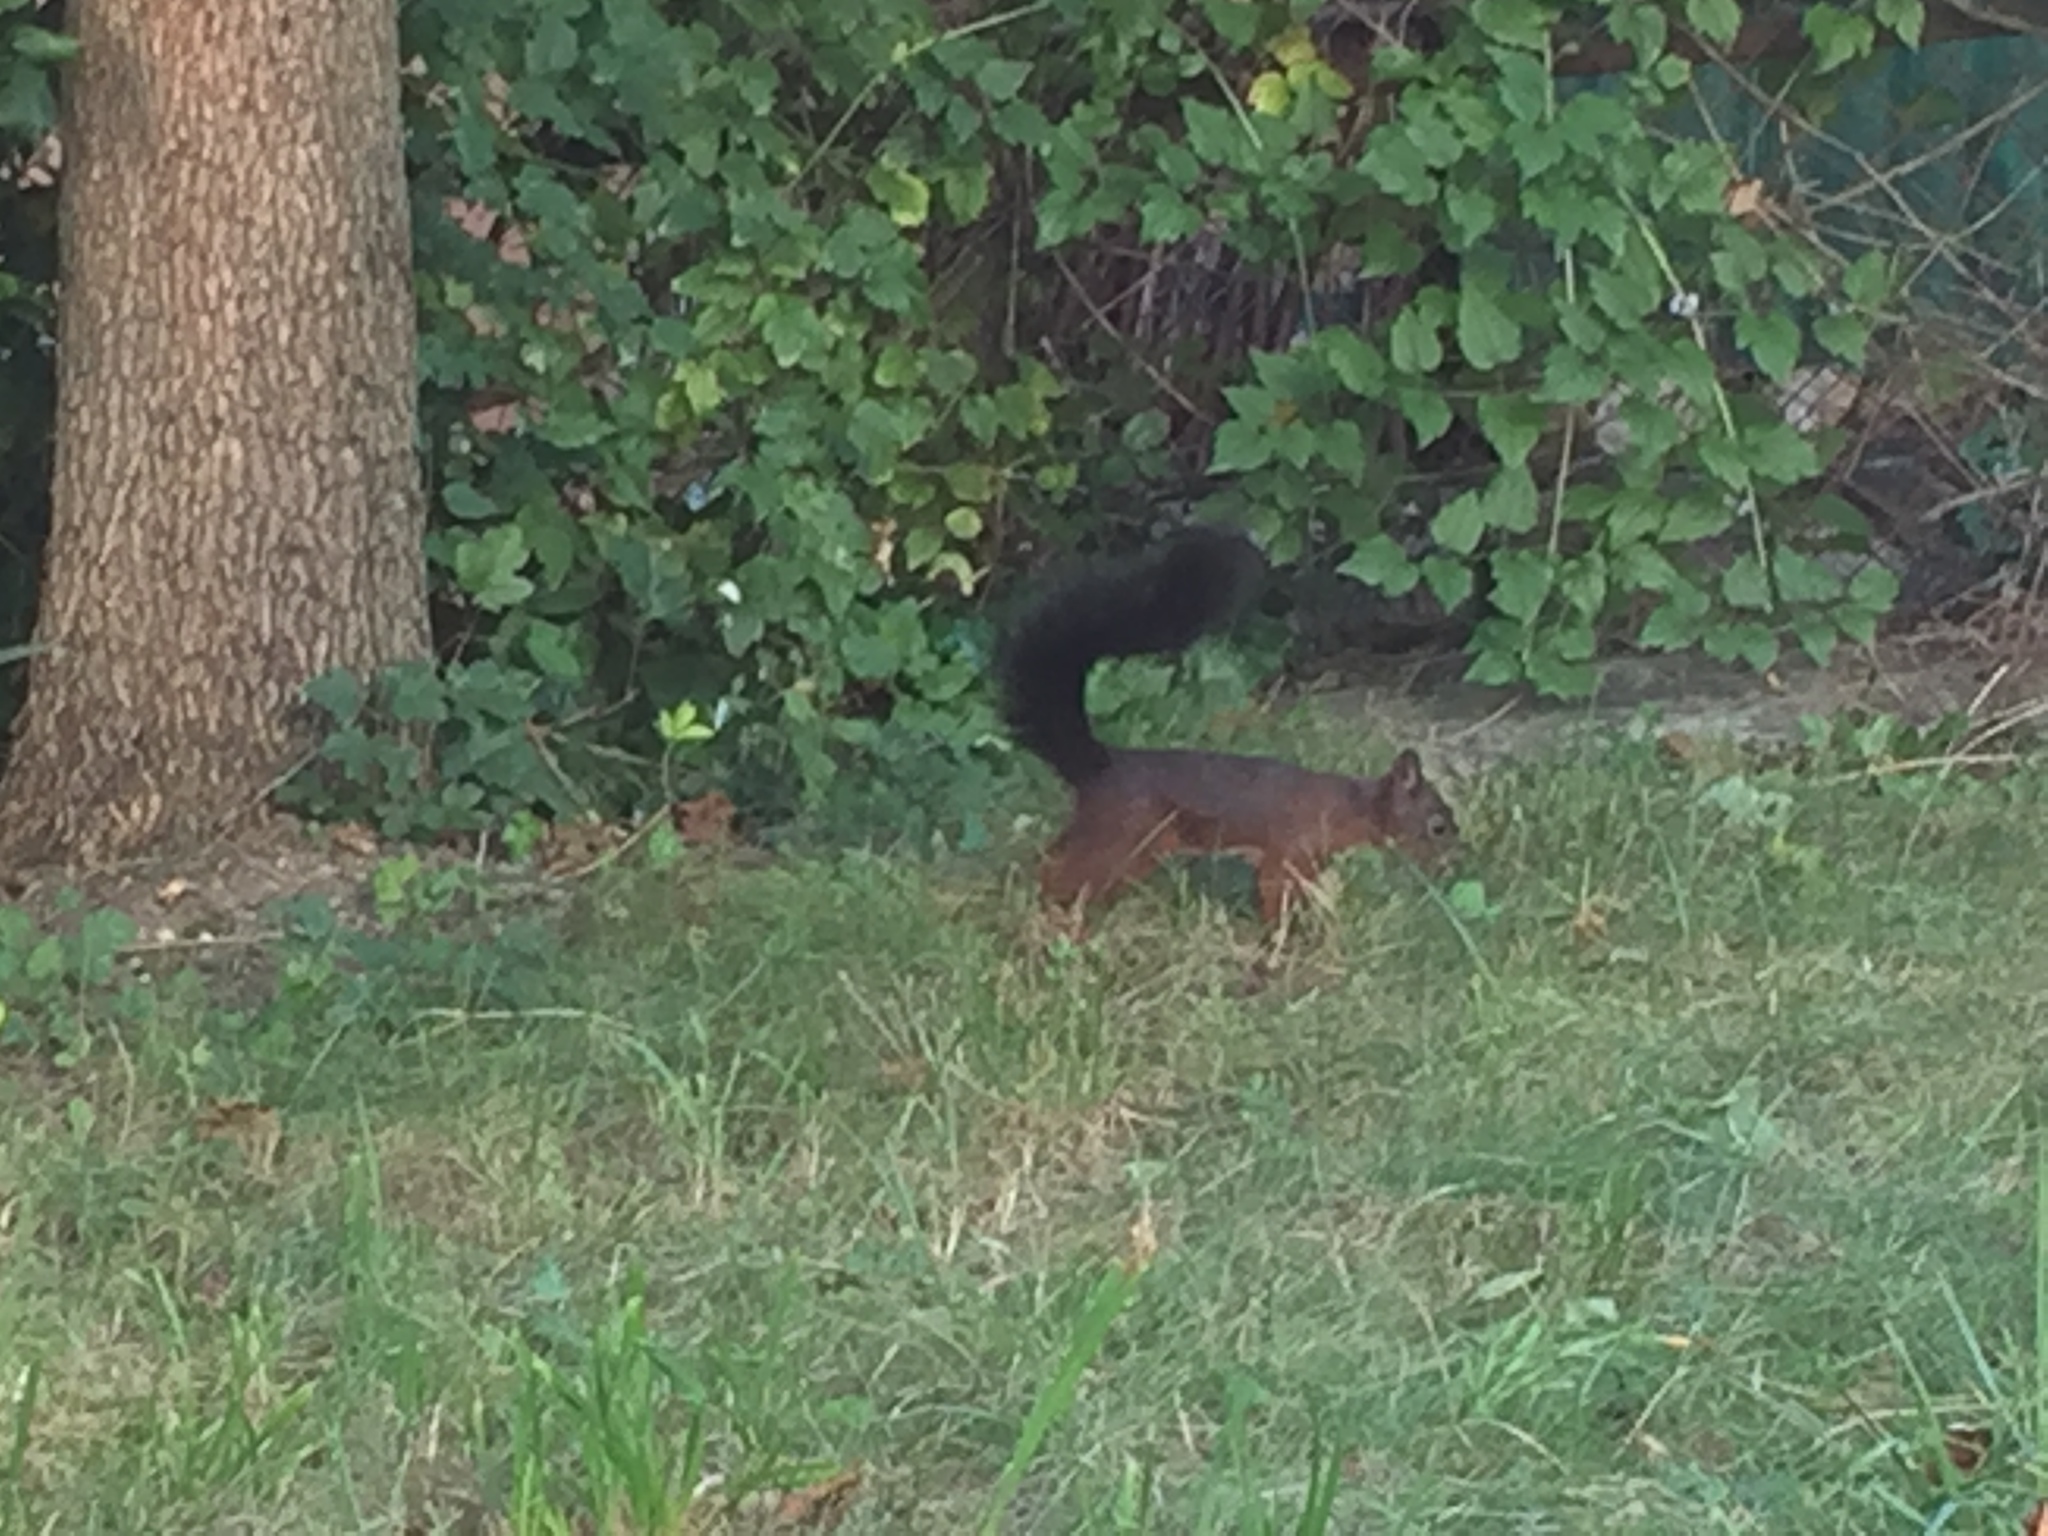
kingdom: Animalia
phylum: Chordata
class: Mammalia
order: Rodentia
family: Sciuridae
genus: Sciurus
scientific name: Sciurus vulgaris
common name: Eurasian red squirrel
